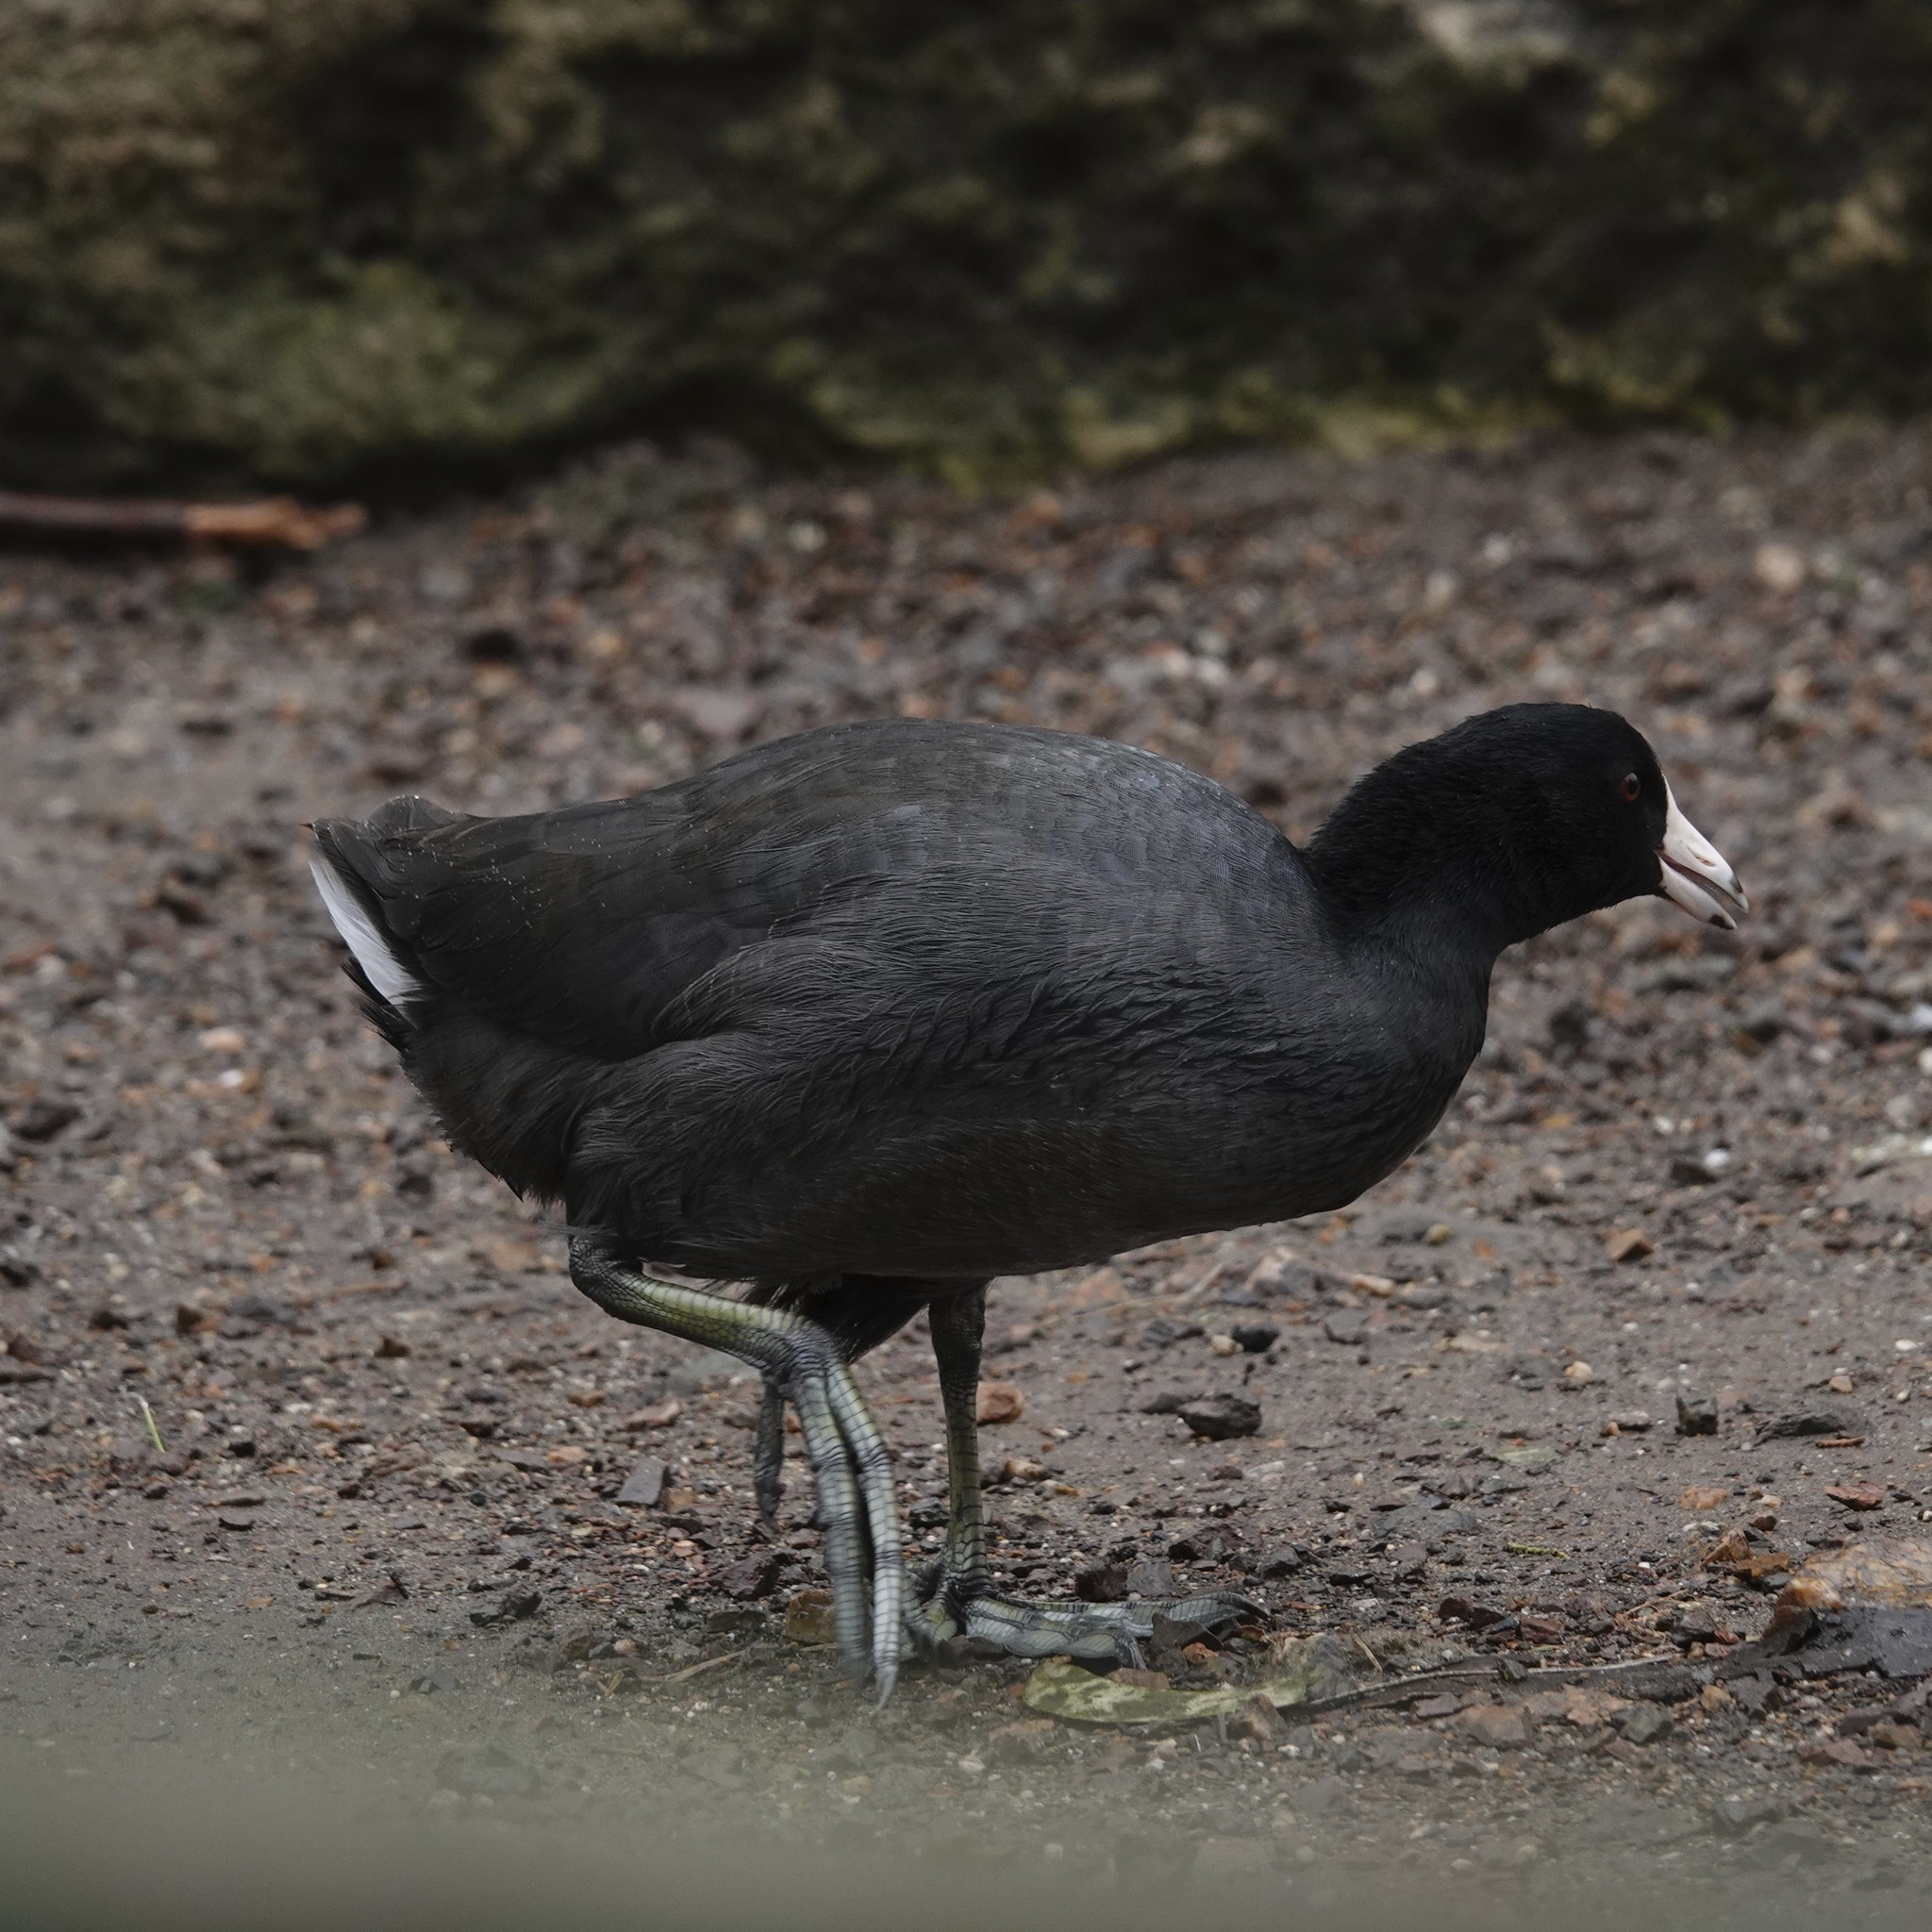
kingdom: Animalia
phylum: Chordata
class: Aves
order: Gruiformes
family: Rallidae
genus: Fulica
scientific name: Fulica americana
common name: American coot
